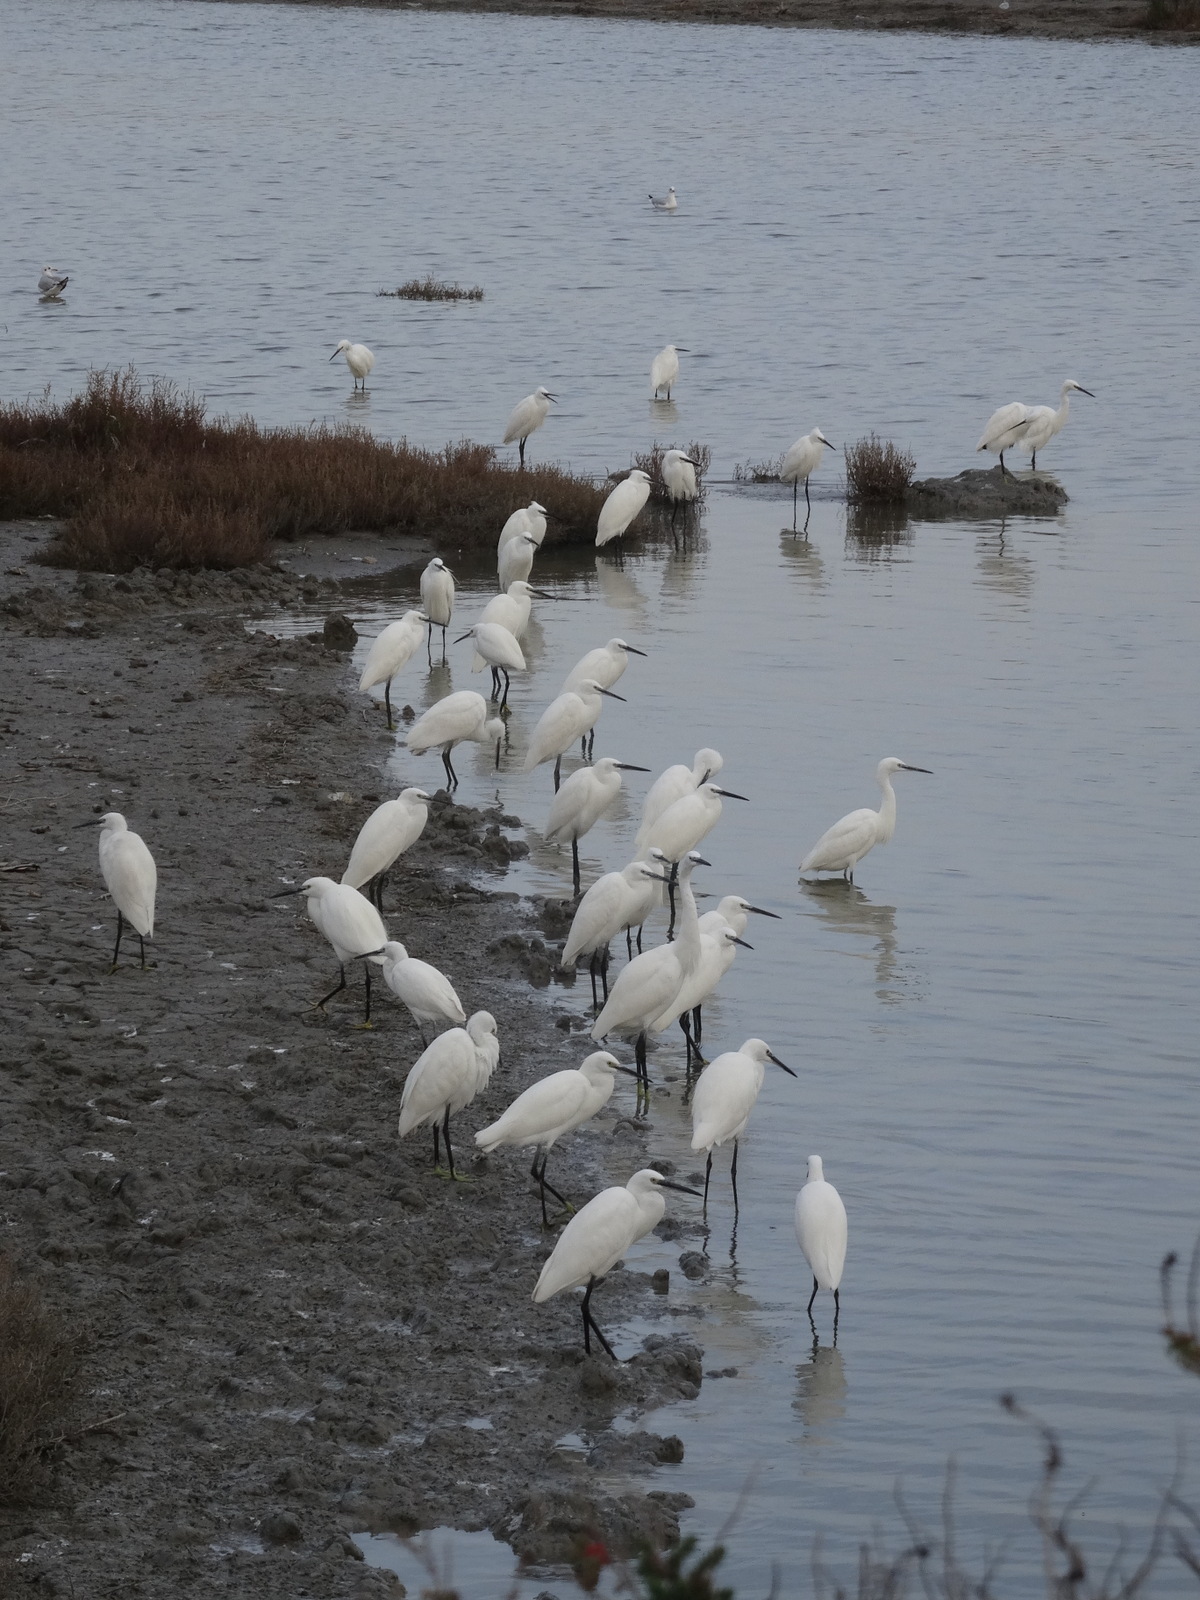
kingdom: Animalia
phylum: Chordata
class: Aves
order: Pelecaniformes
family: Ardeidae
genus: Egretta
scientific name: Egretta garzetta
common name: Little egret
